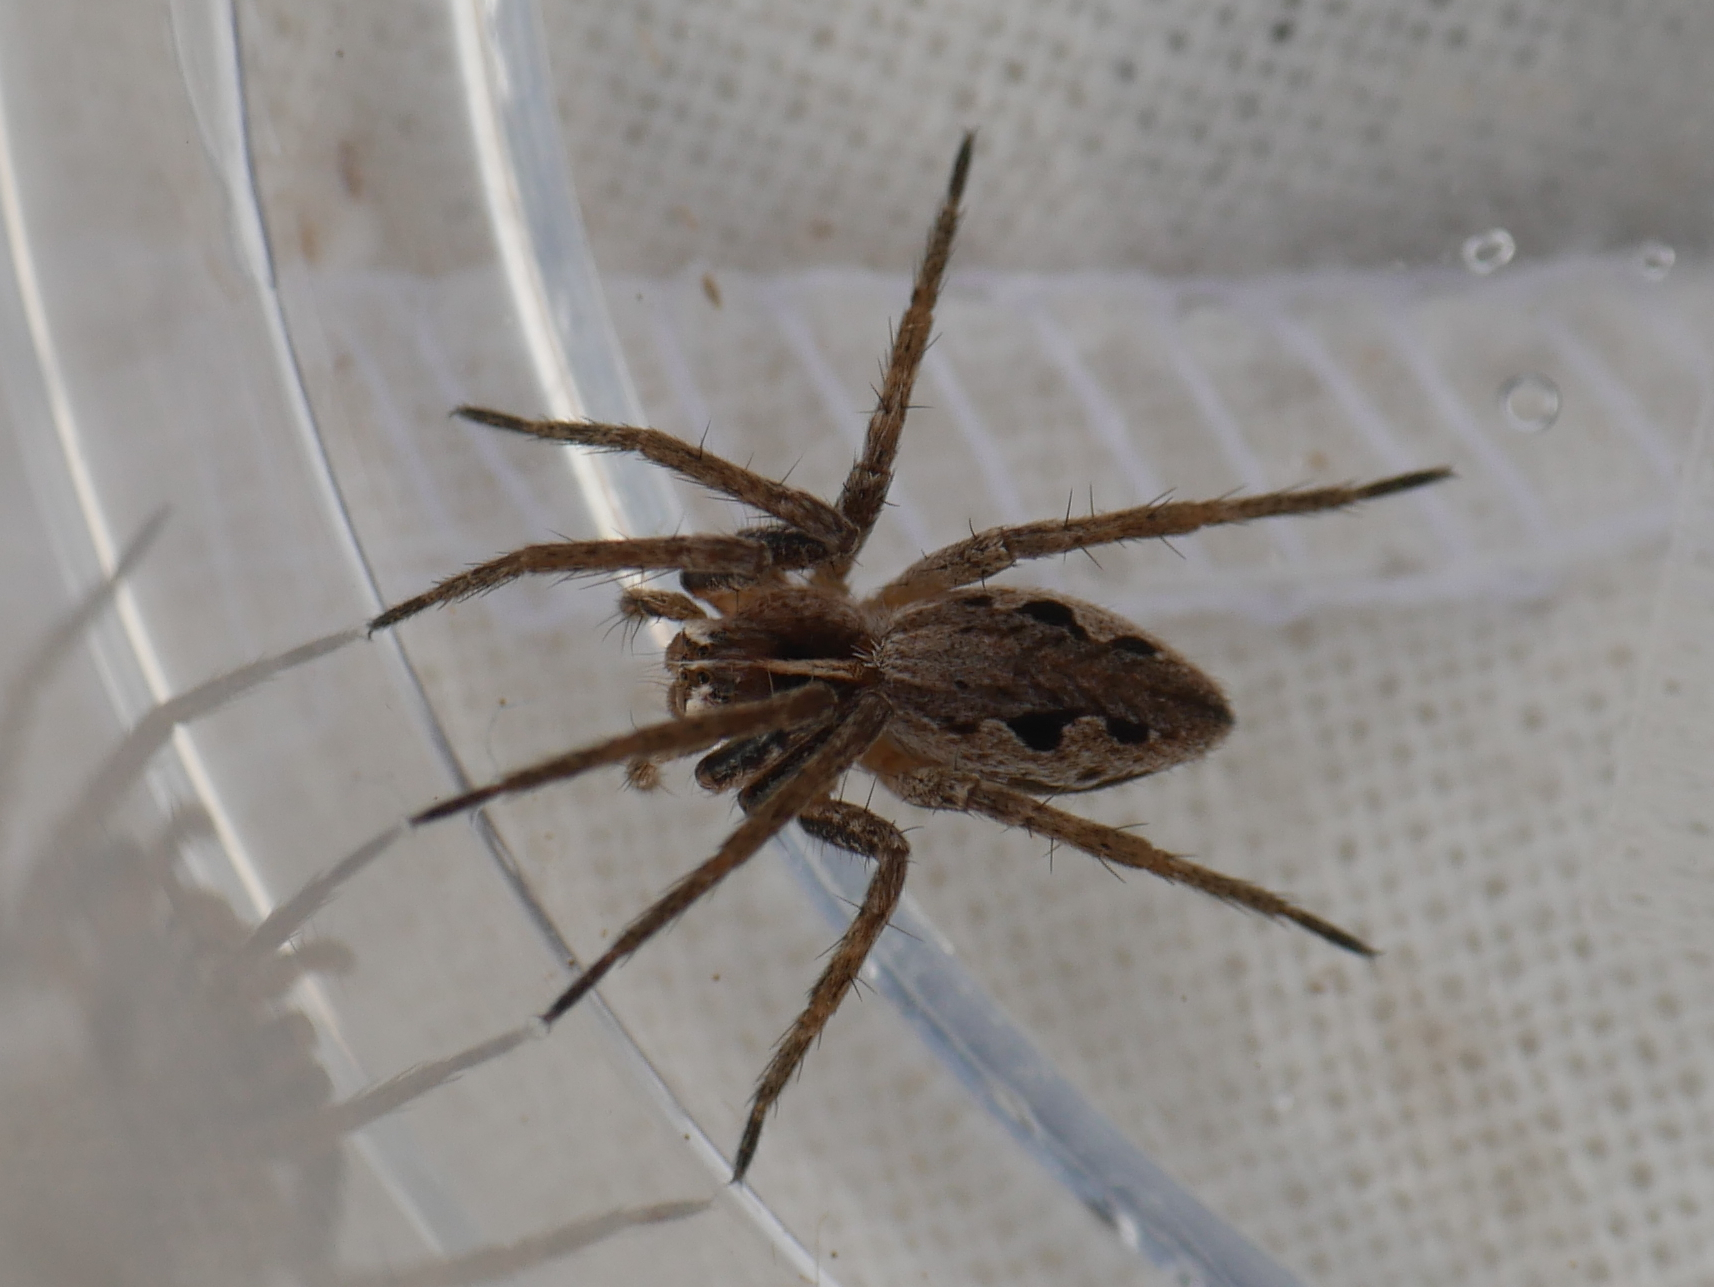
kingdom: Animalia
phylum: Arthropoda
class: Arachnida
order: Araneae
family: Pisauridae
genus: Pisaura
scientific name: Pisaura mirabilis
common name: Tent spider
